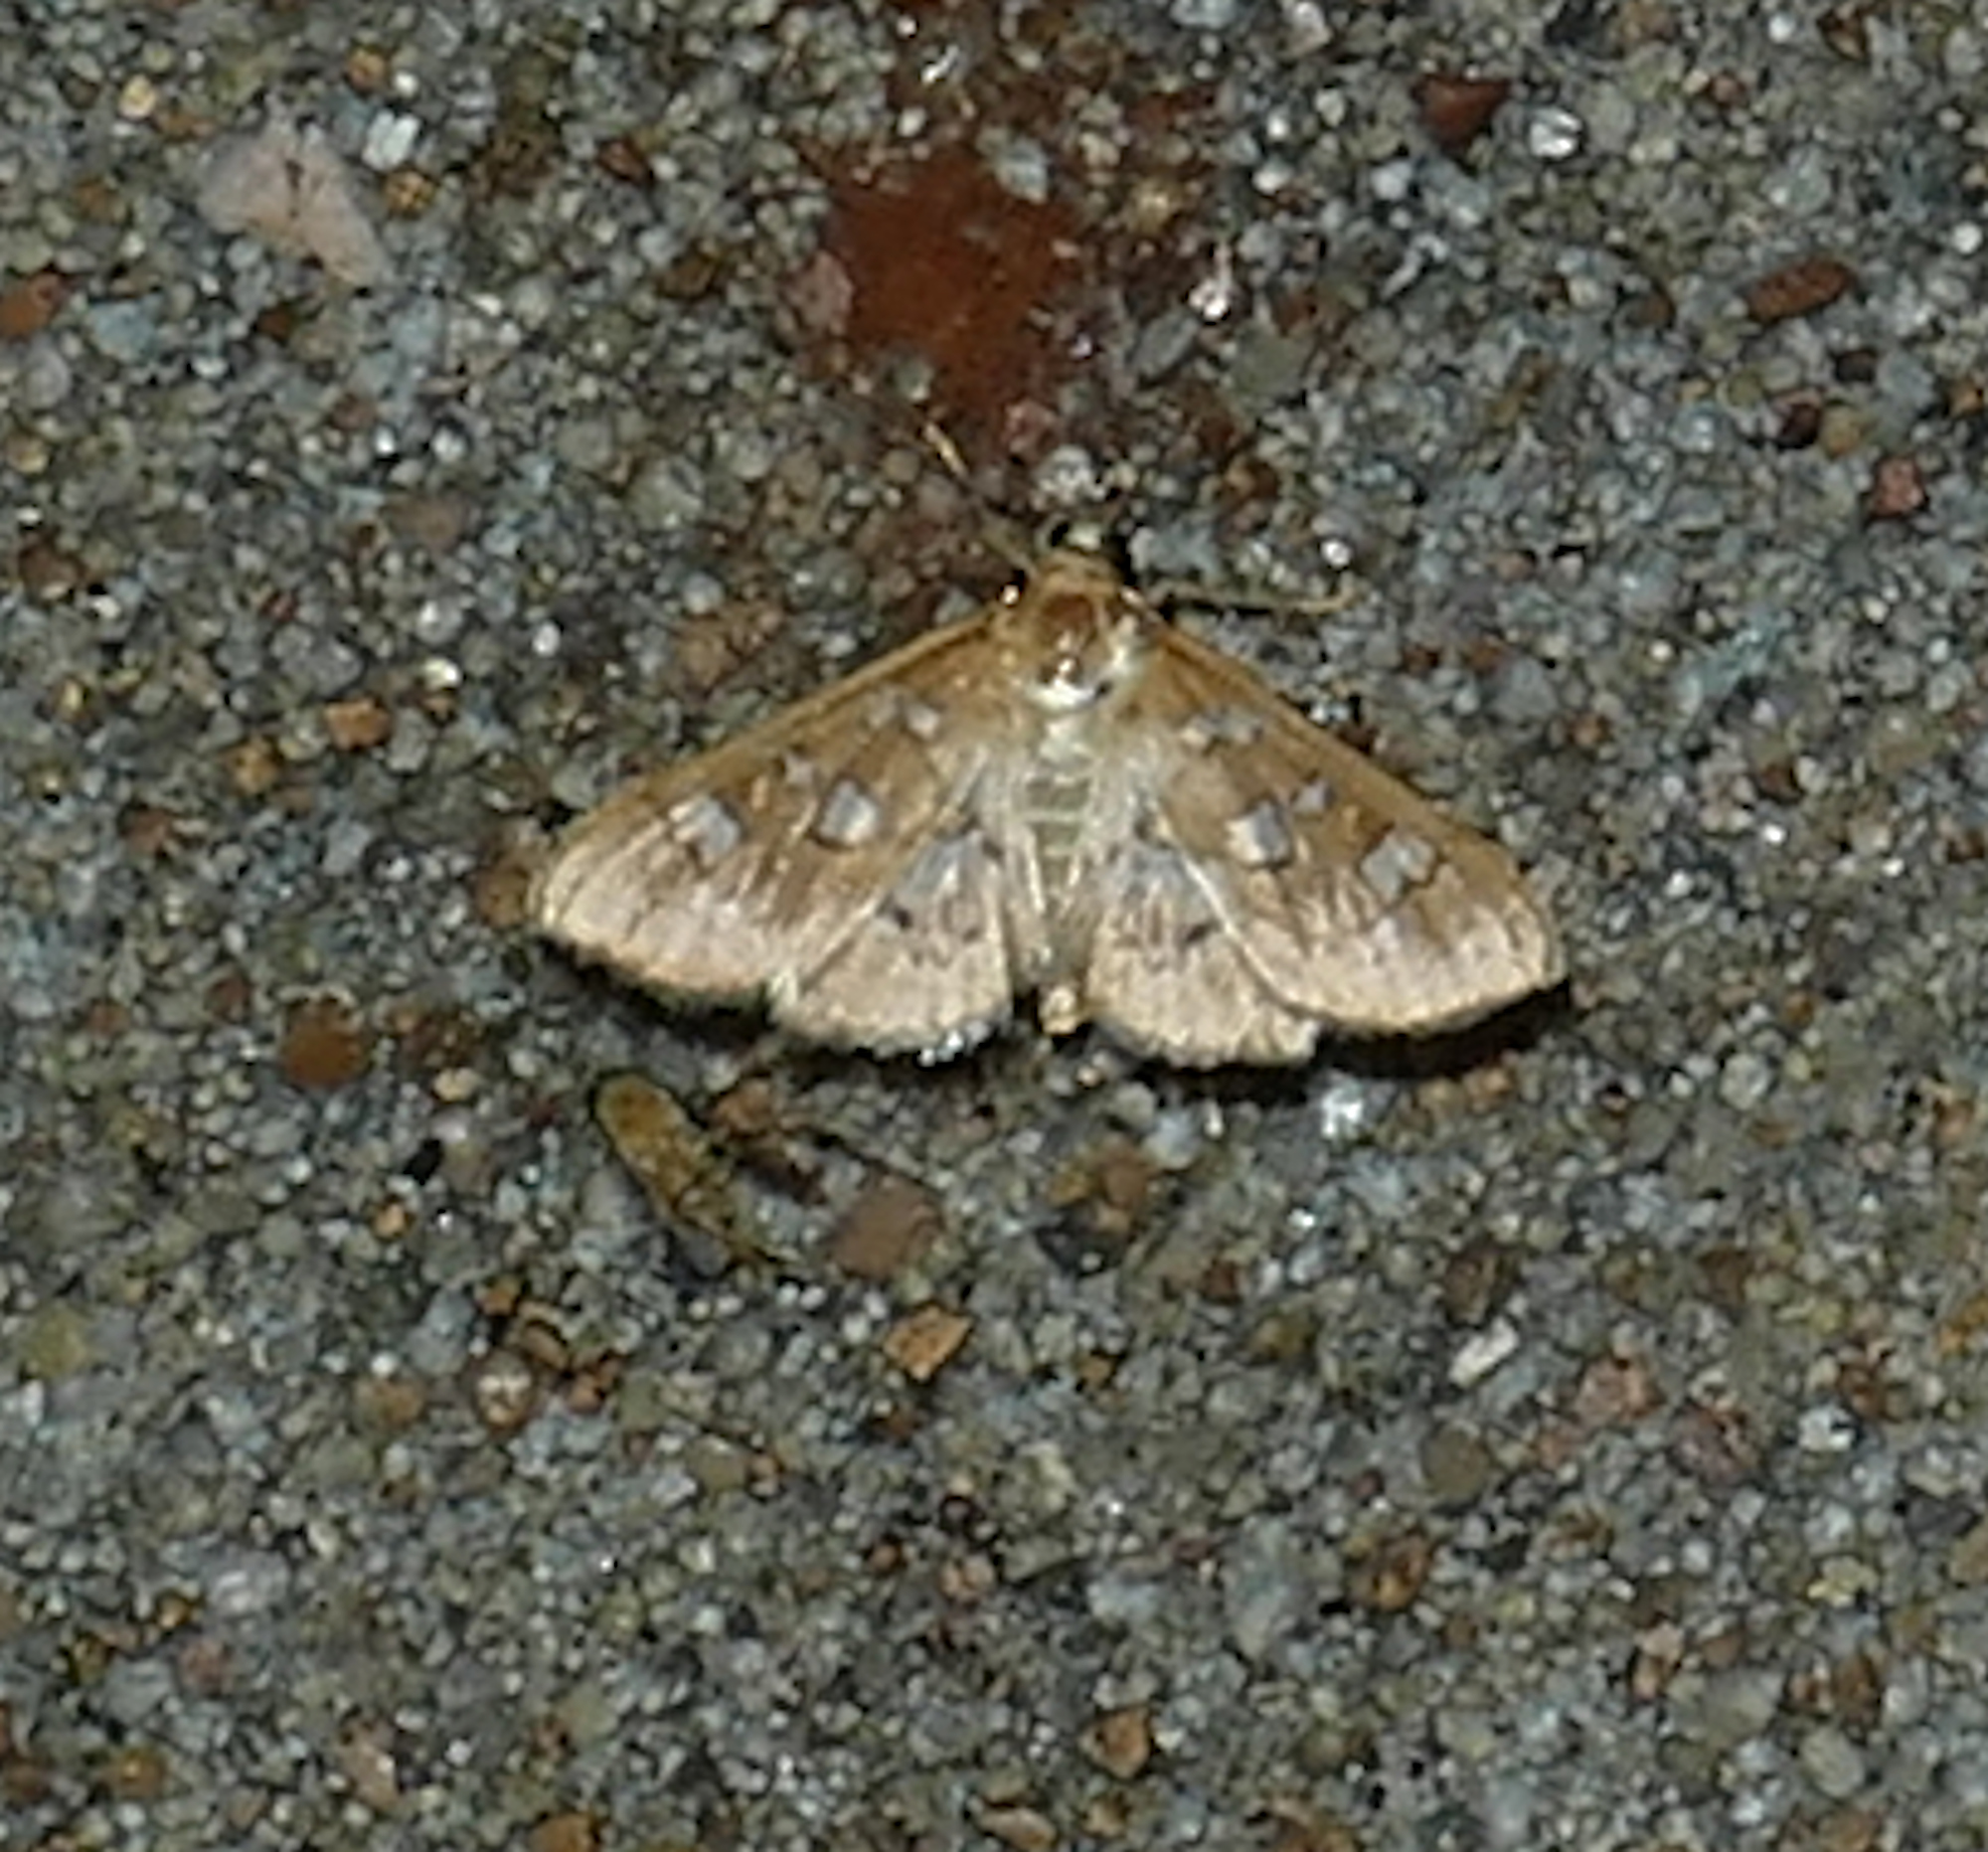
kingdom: Animalia
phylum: Arthropoda
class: Insecta
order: Lepidoptera
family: Crambidae
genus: Samea
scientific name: Samea baccatalis
